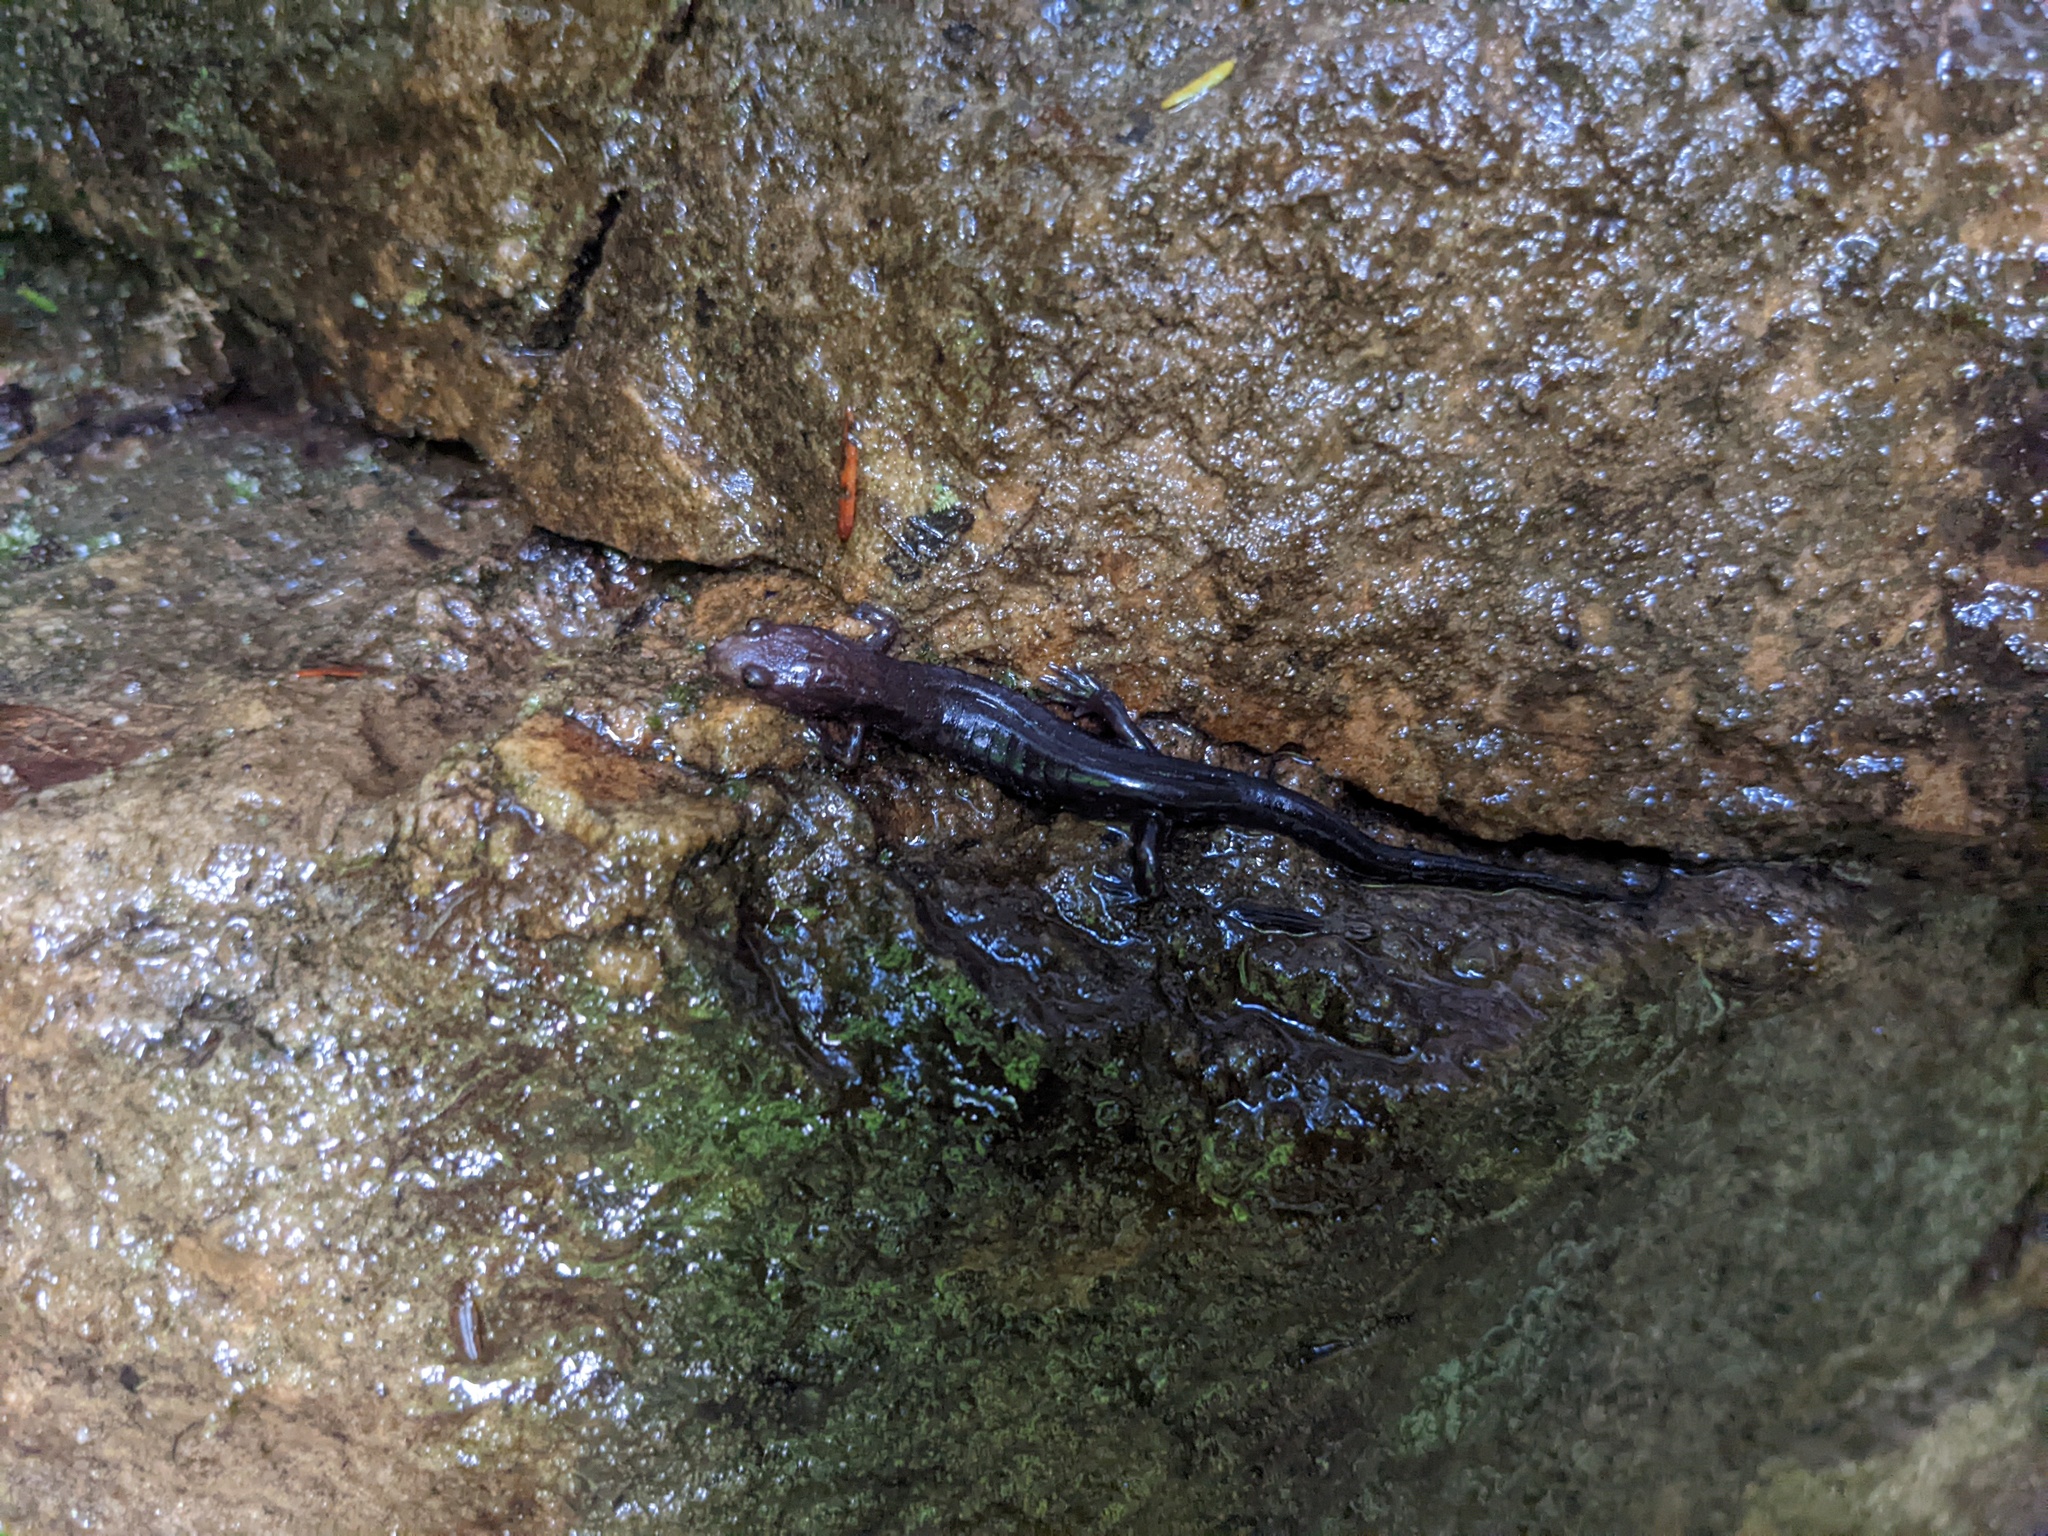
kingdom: Animalia
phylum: Chordata
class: Amphibia
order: Caudata
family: Plethodontidae
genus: Desmognathus
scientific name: Desmognathus ochrophaeus
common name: Allegheny mountain dusky salamander
